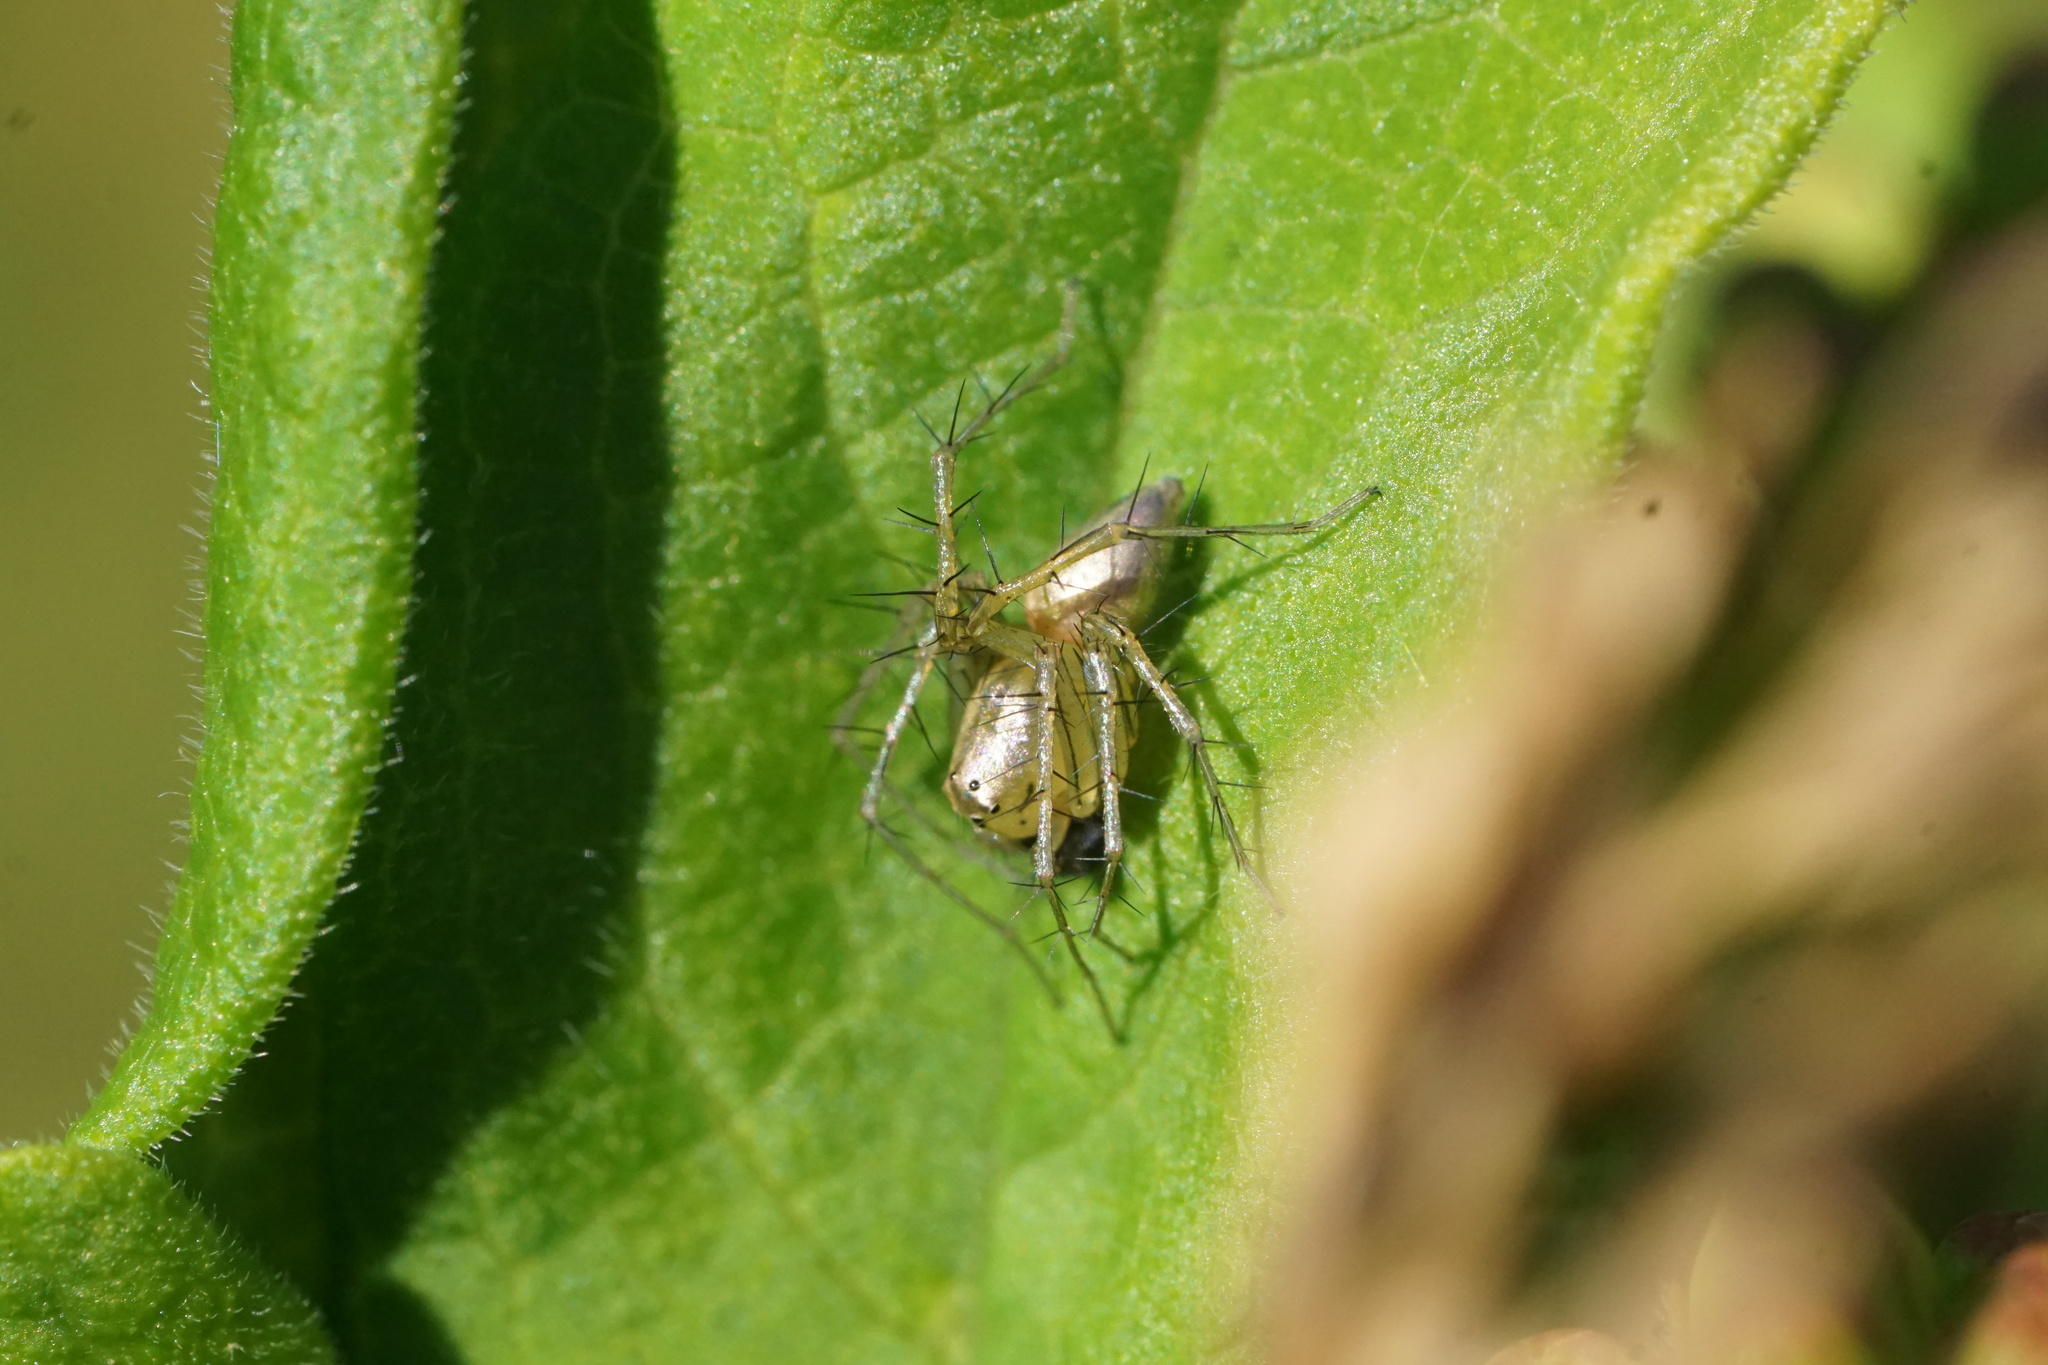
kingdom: Animalia
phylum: Arthropoda
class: Arachnida
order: Araneae
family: Oxyopidae
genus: Oxyopes
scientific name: Oxyopes salticus
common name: Lynx spiders
